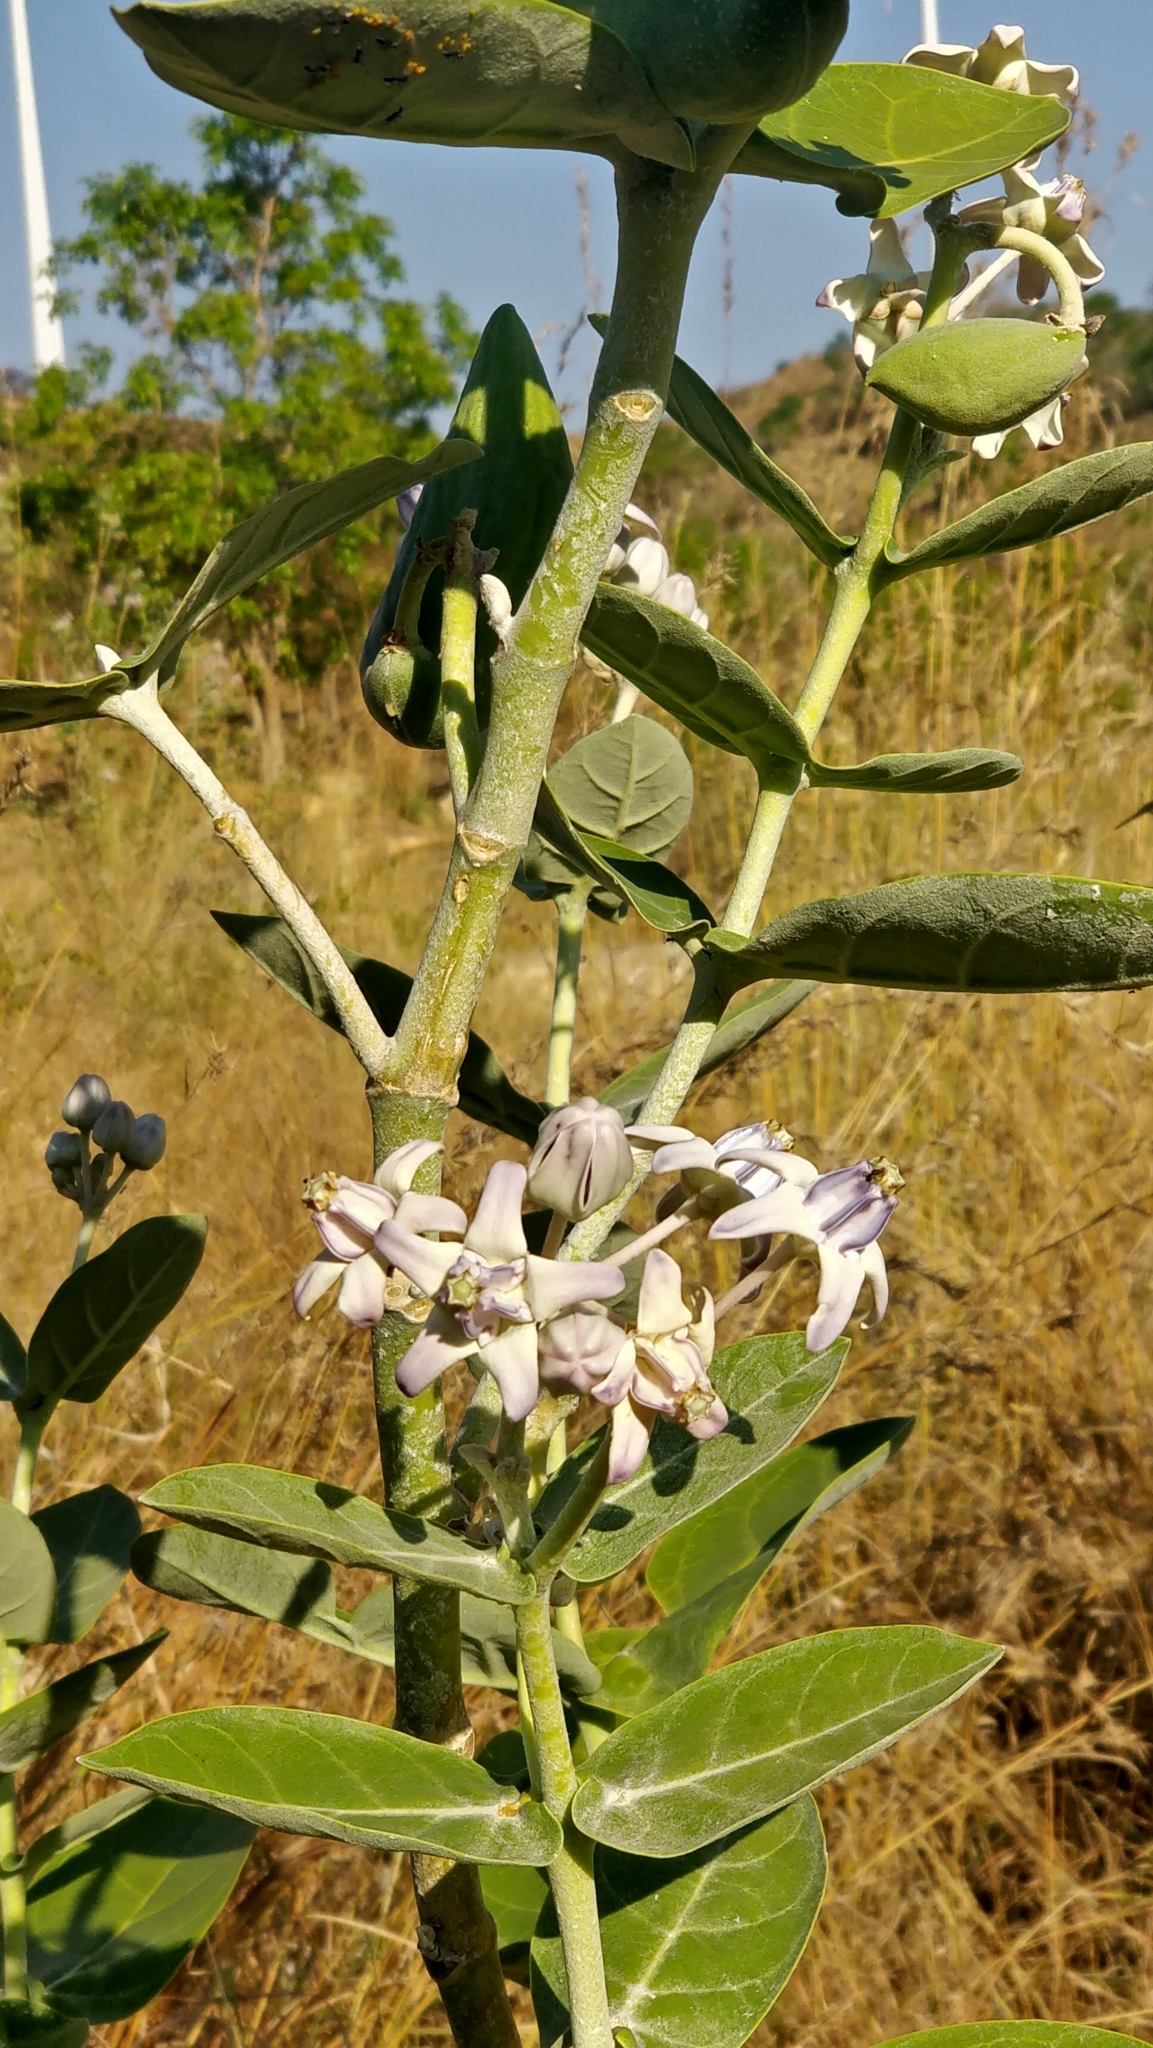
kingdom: Plantae
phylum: Tracheophyta
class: Magnoliopsida
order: Gentianales
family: Apocynaceae
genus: Calotropis
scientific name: Calotropis gigantea
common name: Crown flower
